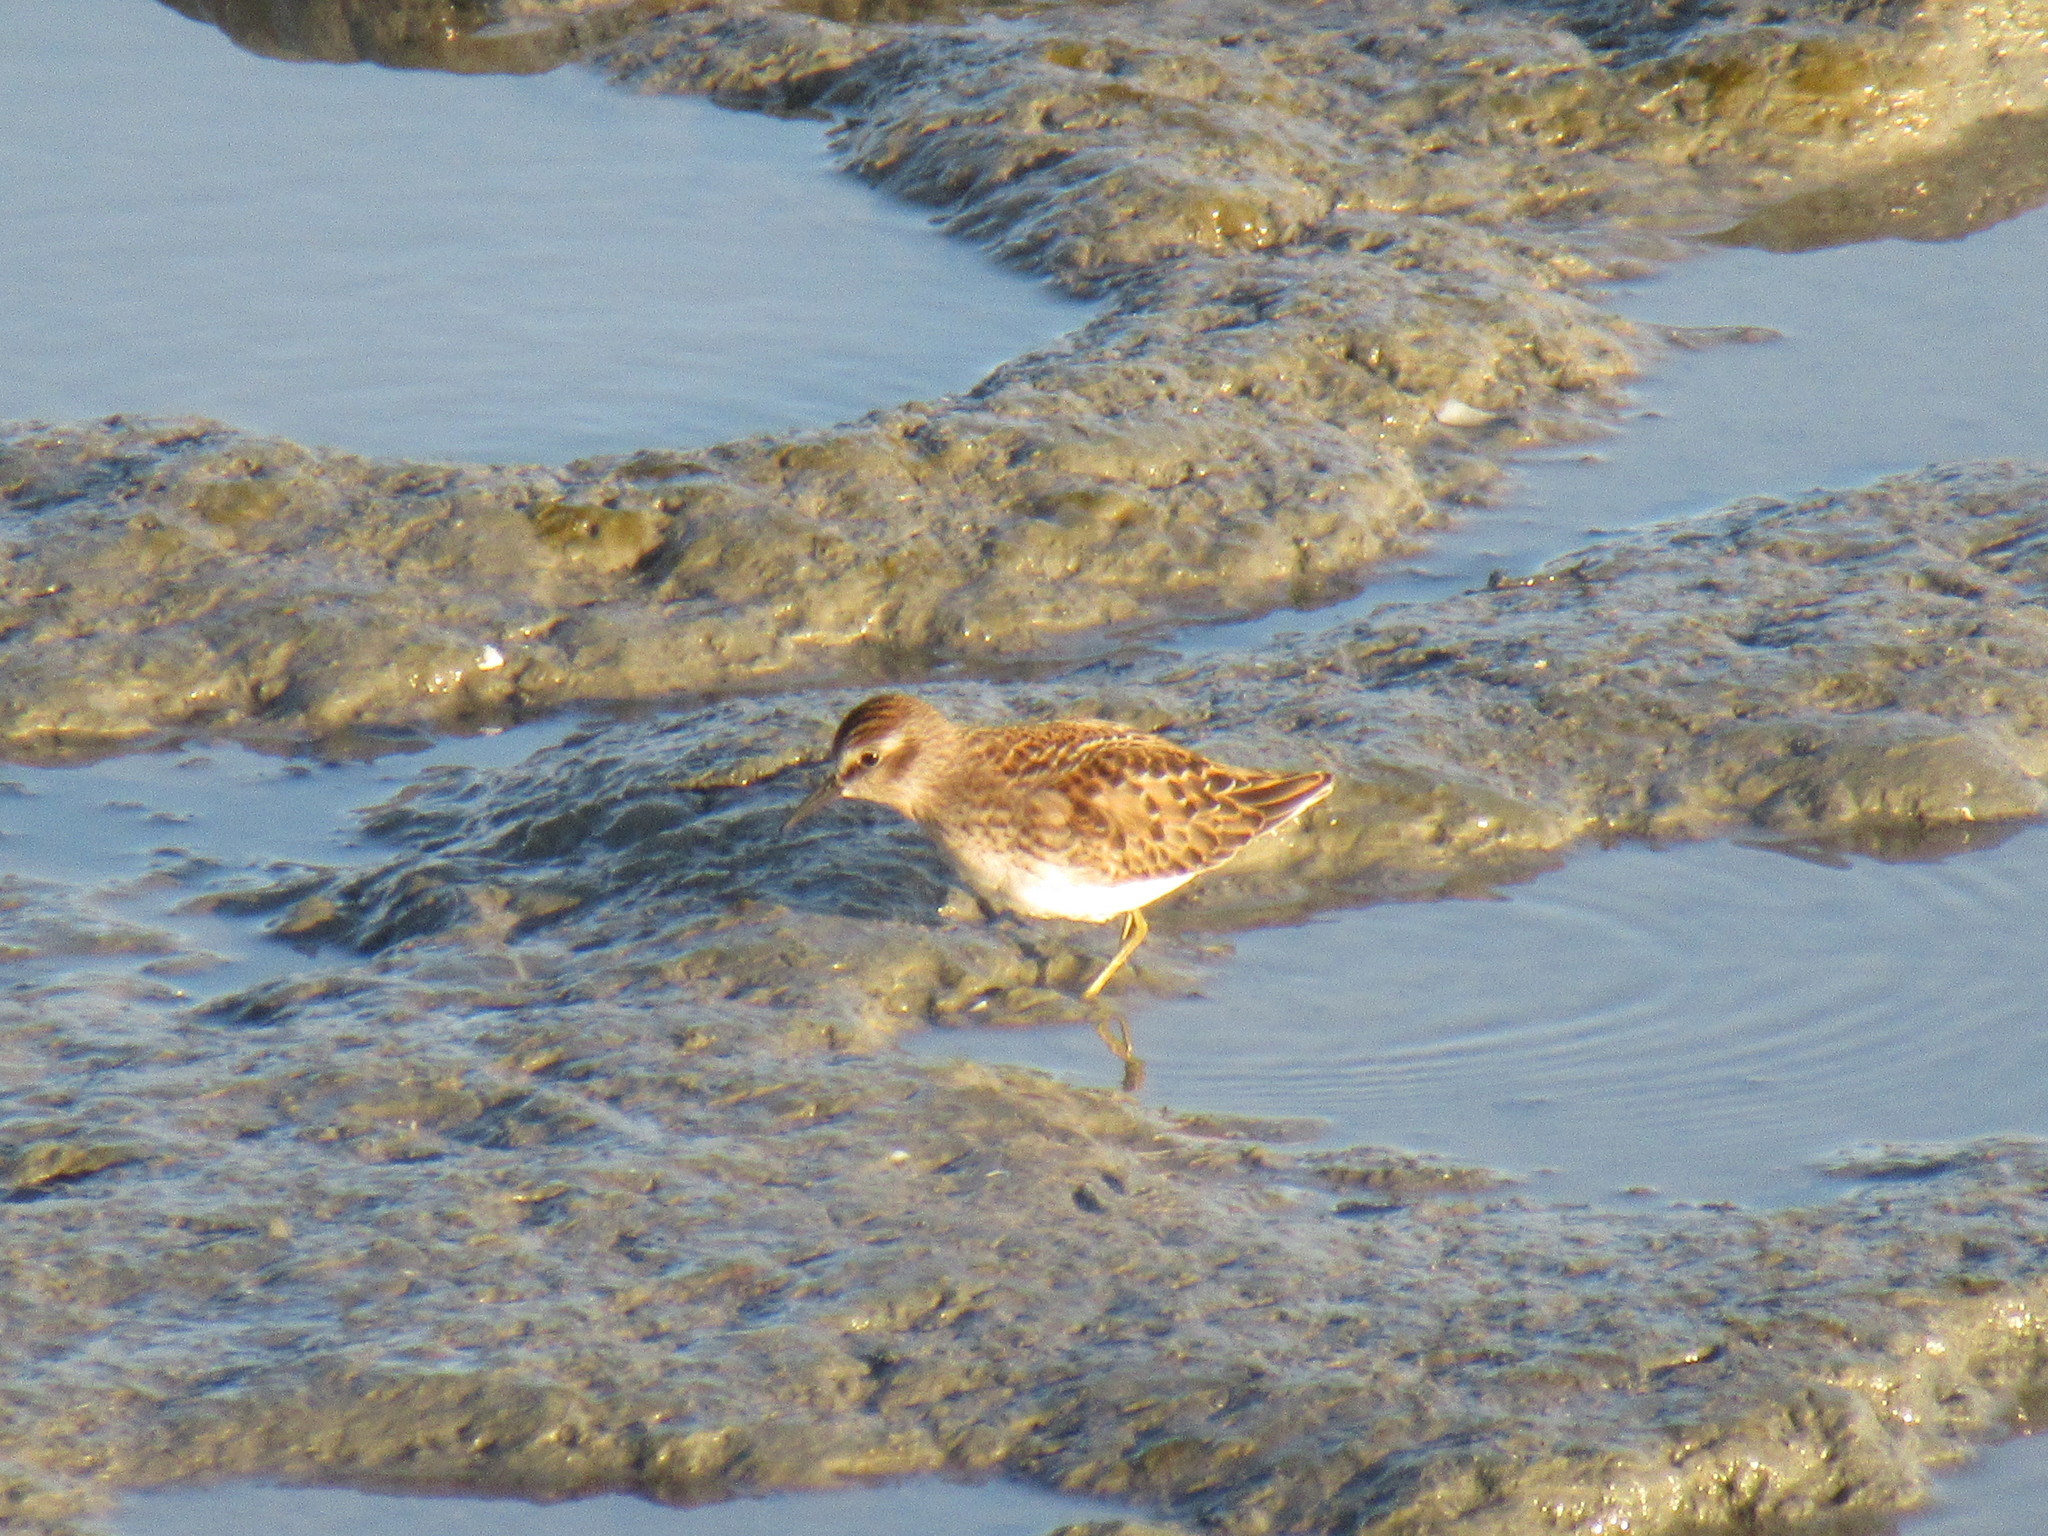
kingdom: Animalia
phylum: Chordata
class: Aves
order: Charadriiformes
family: Scolopacidae
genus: Calidris
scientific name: Calidris minutilla
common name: Least sandpiper
